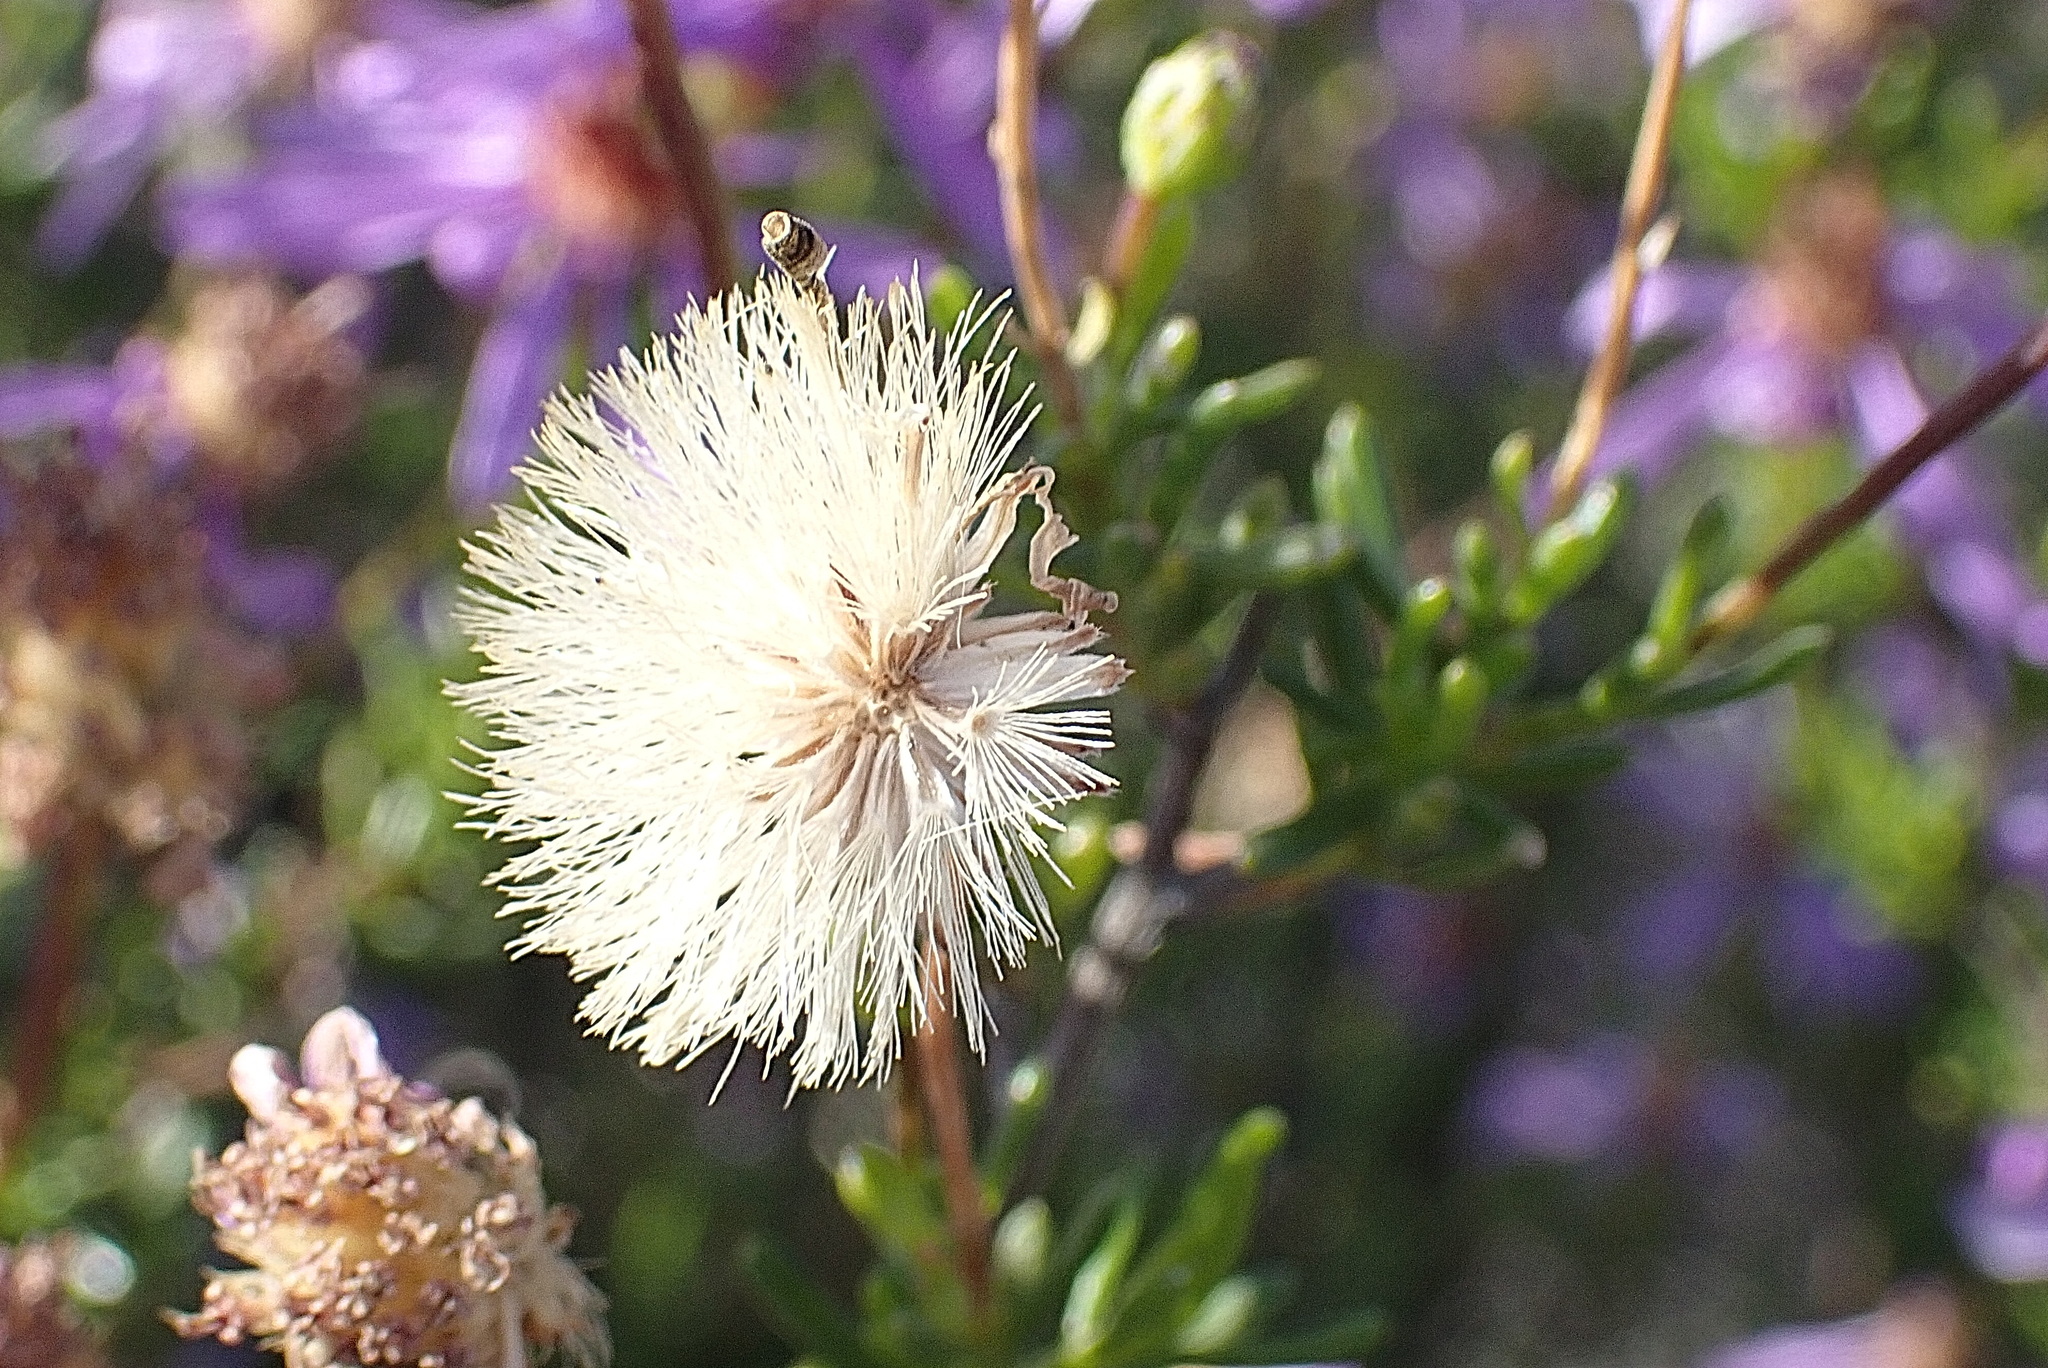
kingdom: Plantae
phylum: Tracheophyta
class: Magnoliopsida
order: Asterales
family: Asteraceae
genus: Felicia
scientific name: Felicia filifolia
